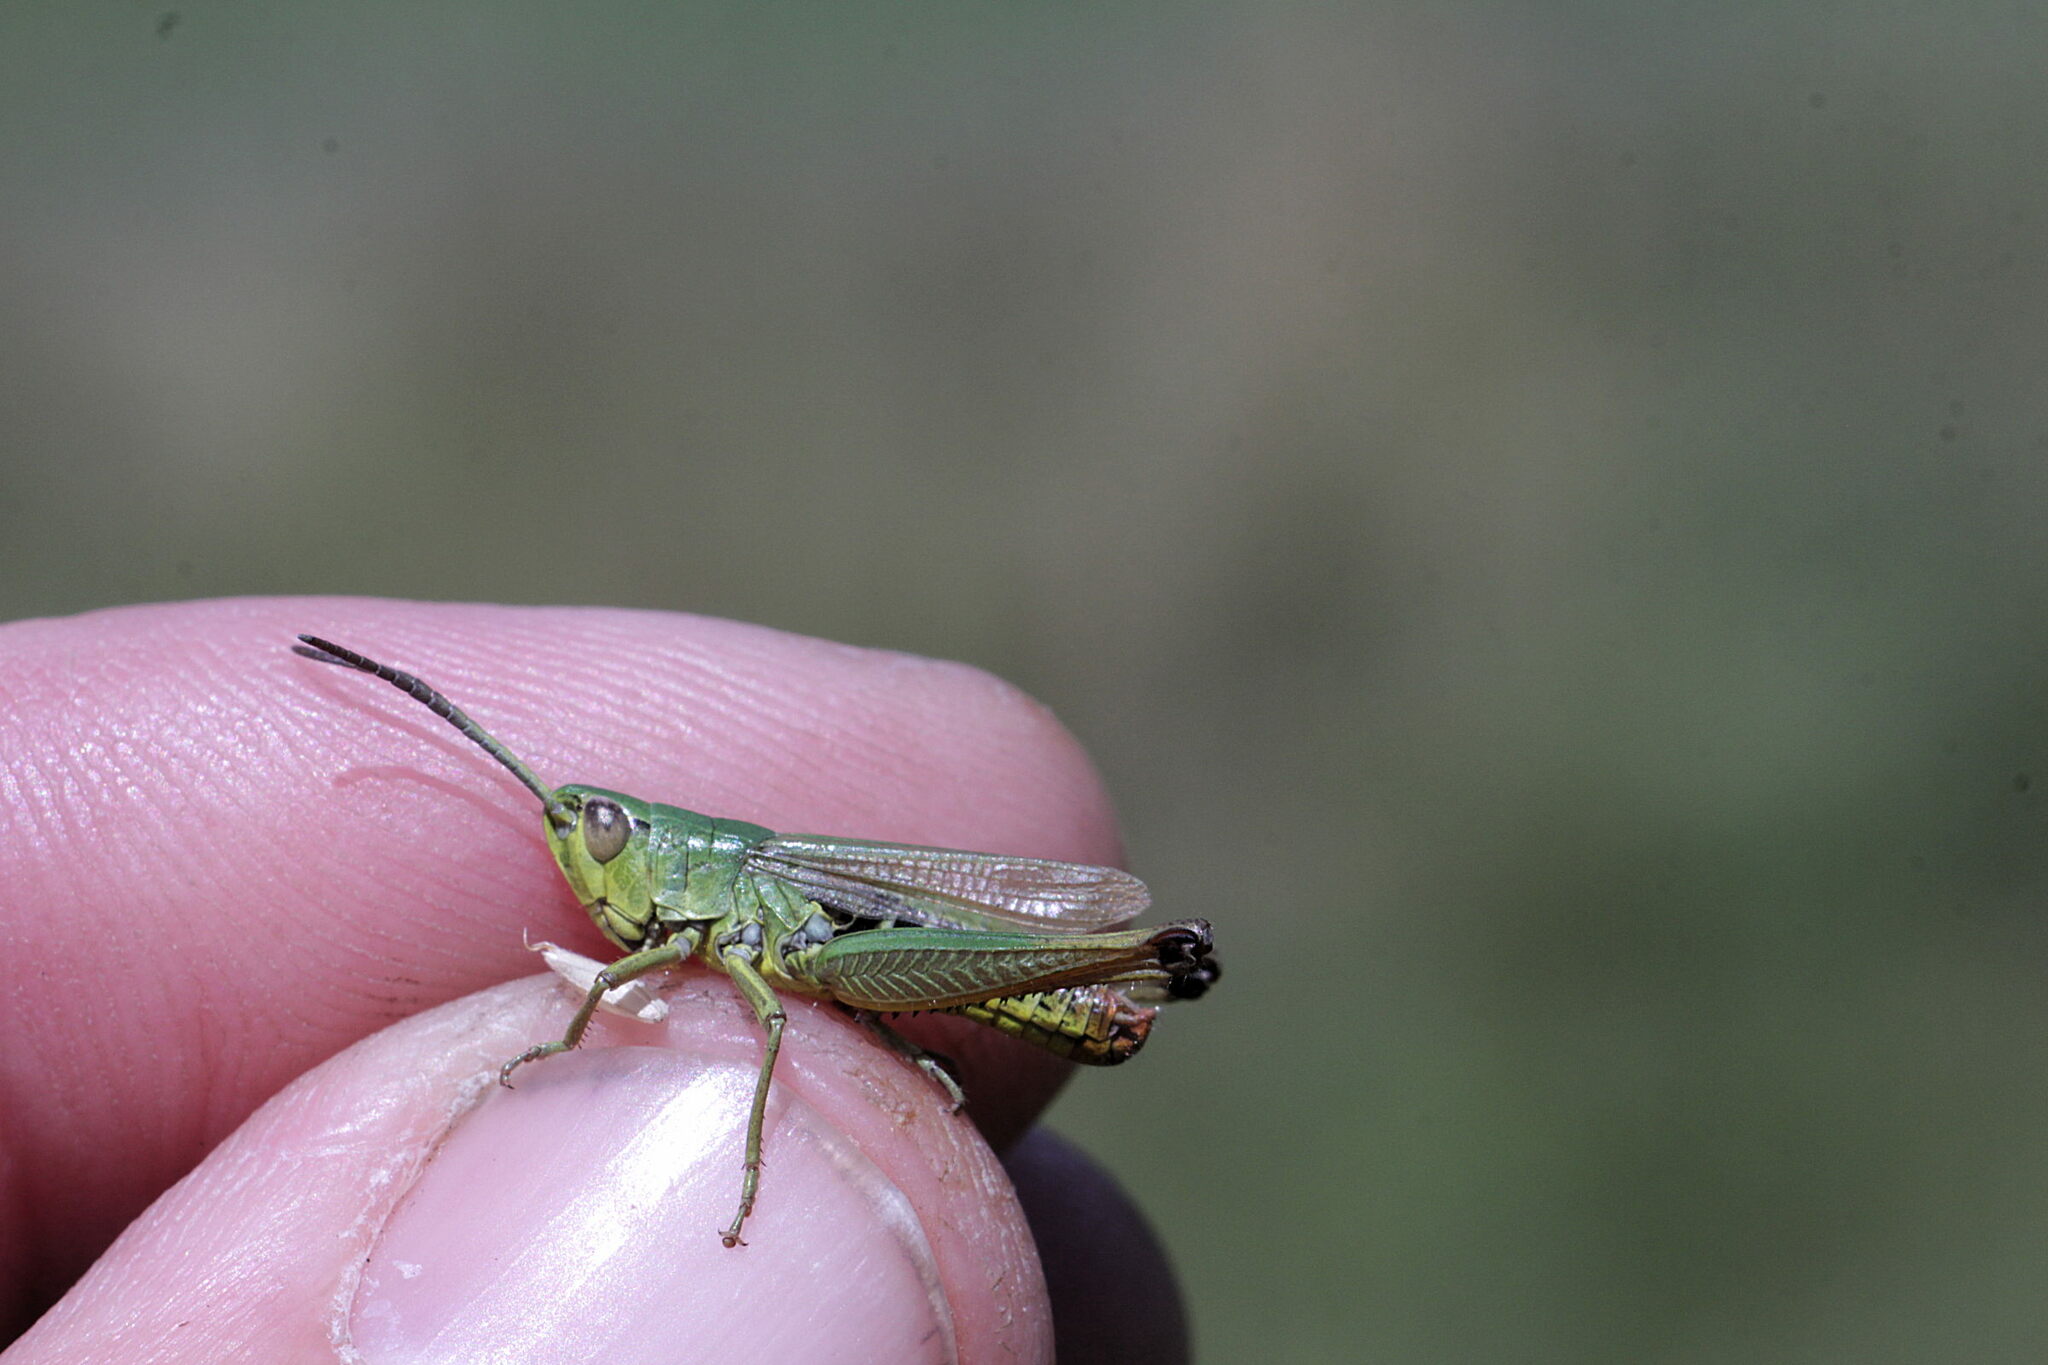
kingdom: Animalia
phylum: Arthropoda
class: Insecta
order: Orthoptera
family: Acrididae
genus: Pseudochorthippus
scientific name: Pseudochorthippus parallelus
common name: Meadow grasshopper
